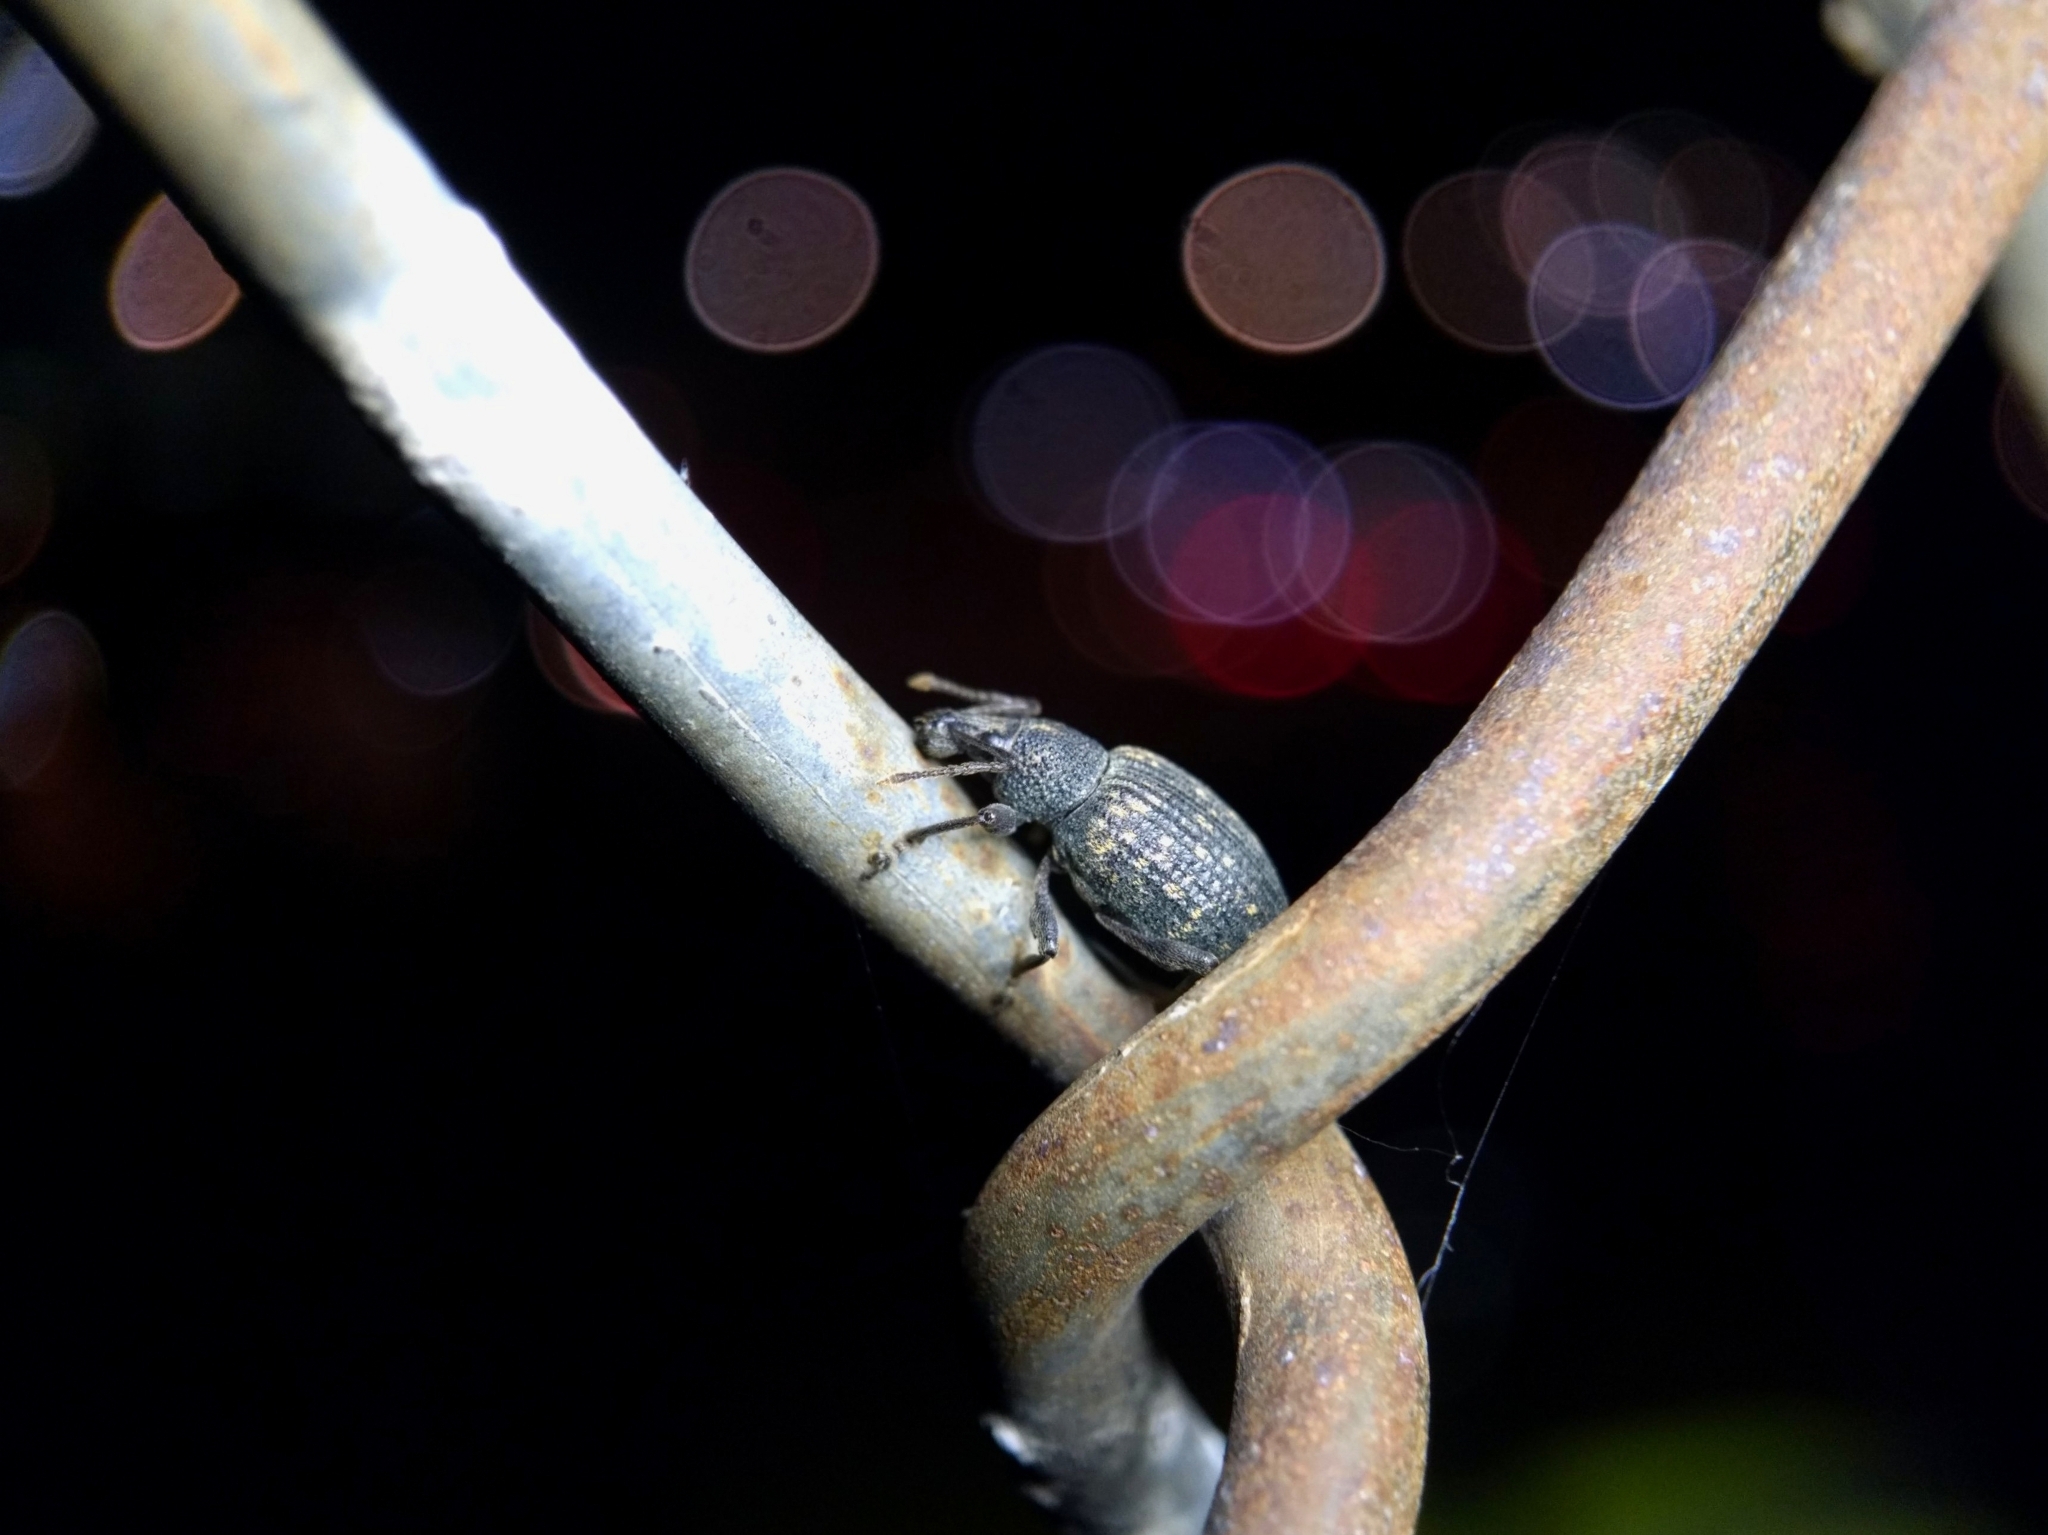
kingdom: Animalia
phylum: Arthropoda
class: Insecta
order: Coleoptera
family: Curculionidae
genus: Otiorhynchus
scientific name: Otiorhynchus sulcatus
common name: Black vine weevil
